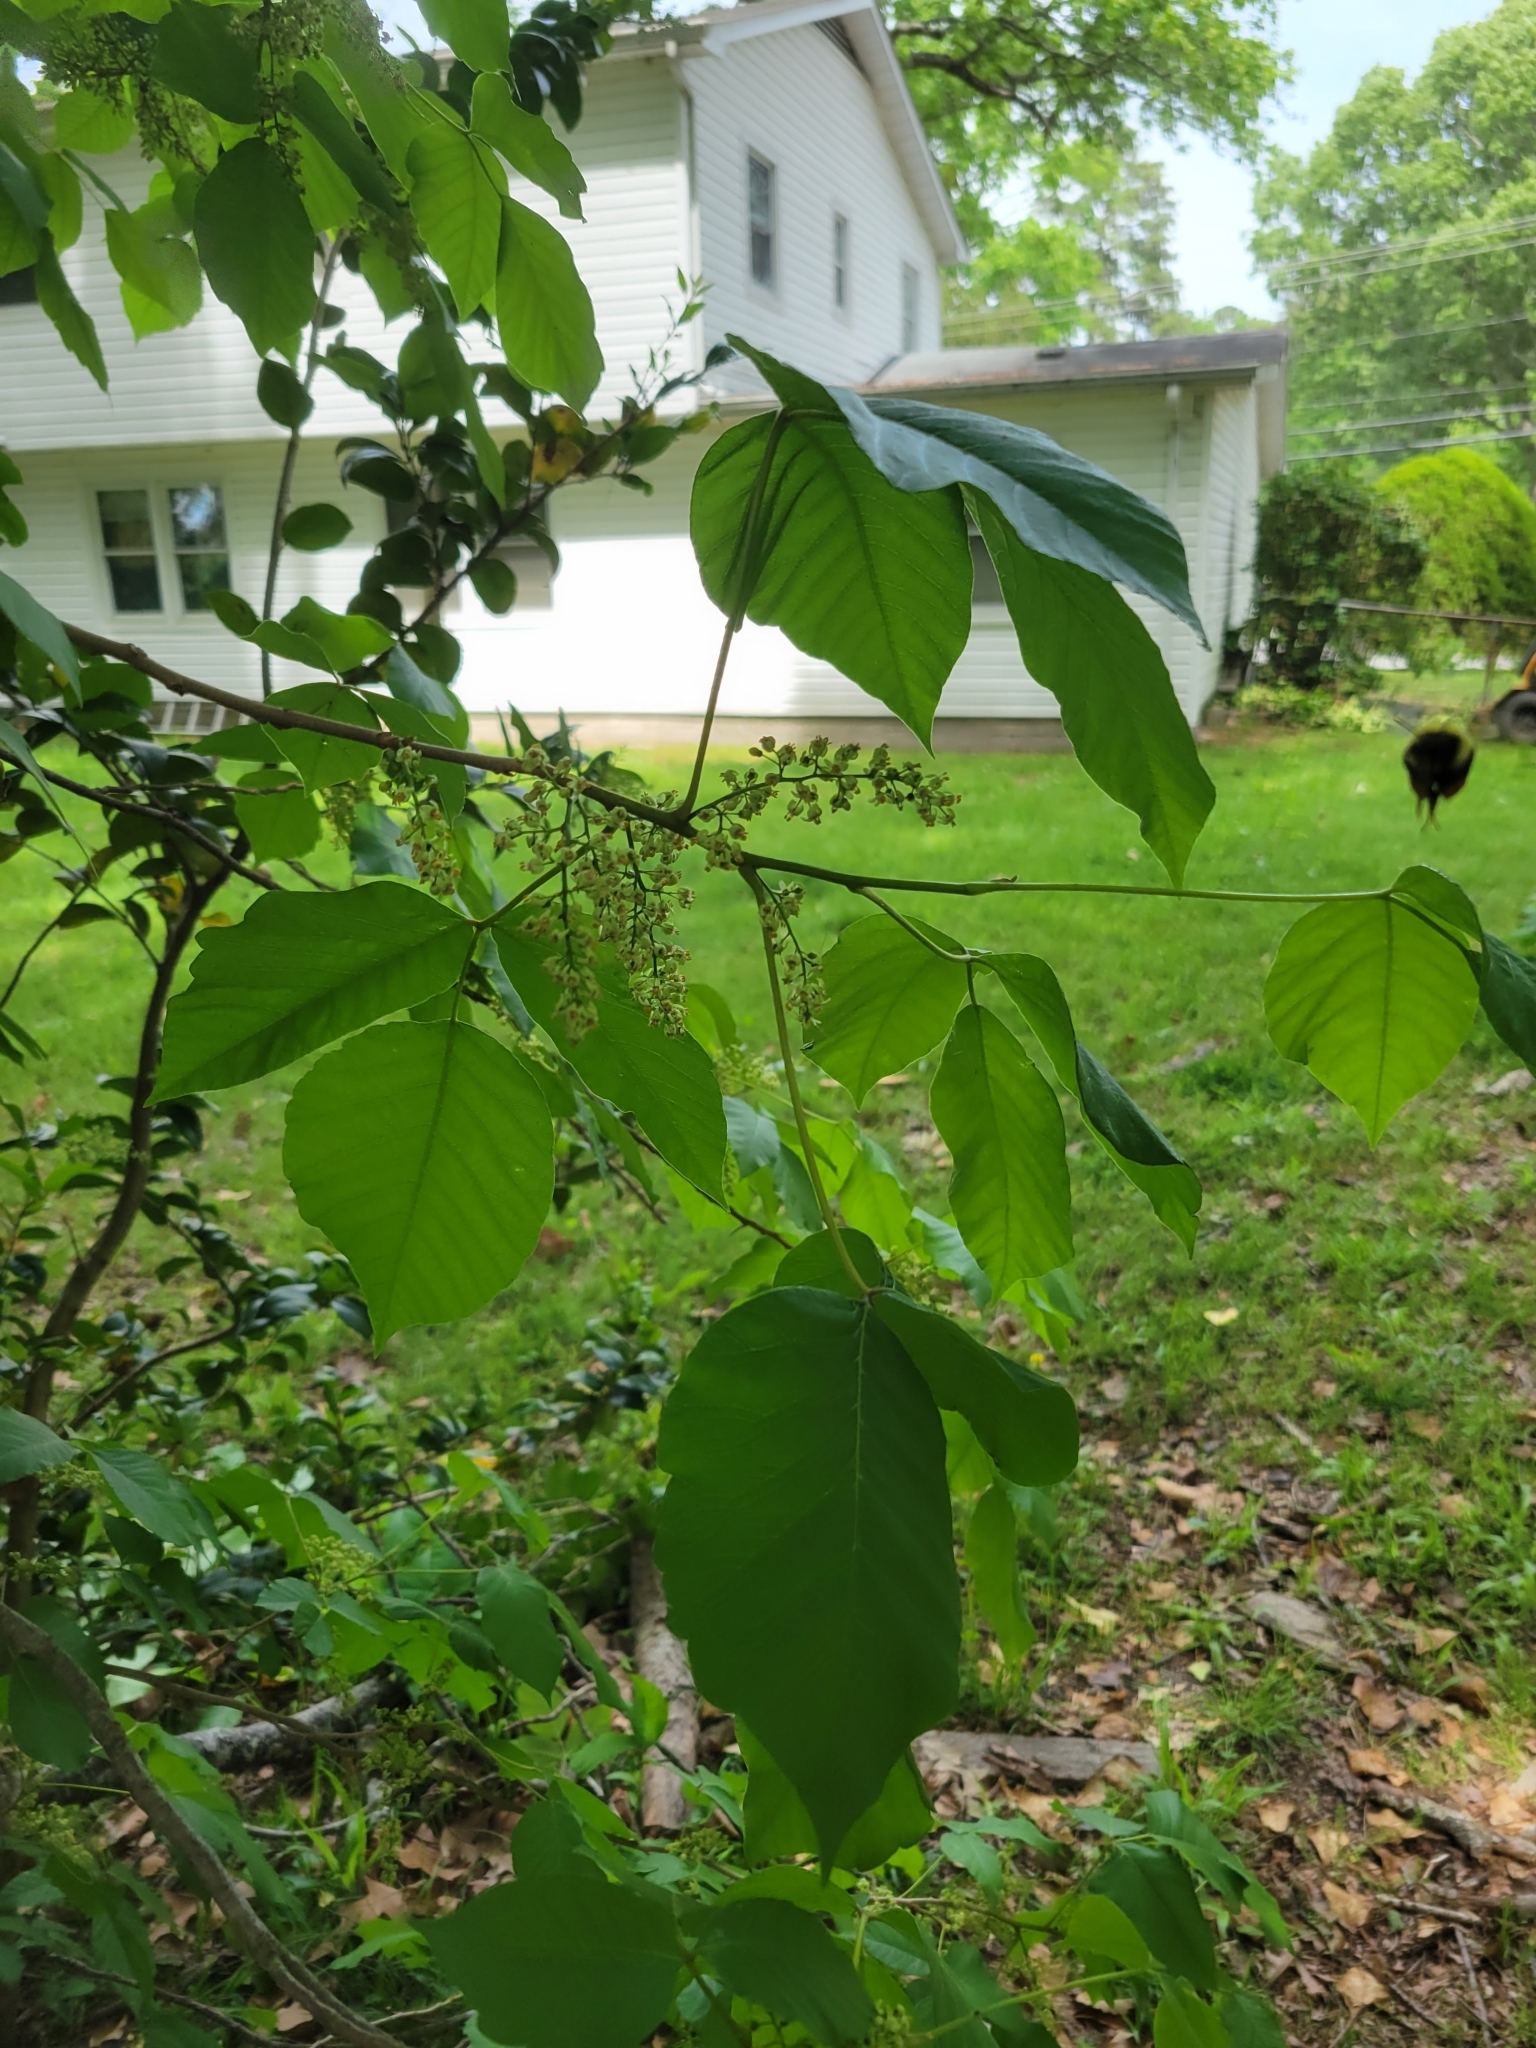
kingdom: Plantae
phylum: Tracheophyta
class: Magnoliopsida
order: Sapindales
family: Anacardiaceae
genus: Toxicodendron
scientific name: Toxicodendron radicans
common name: Poison ivy
